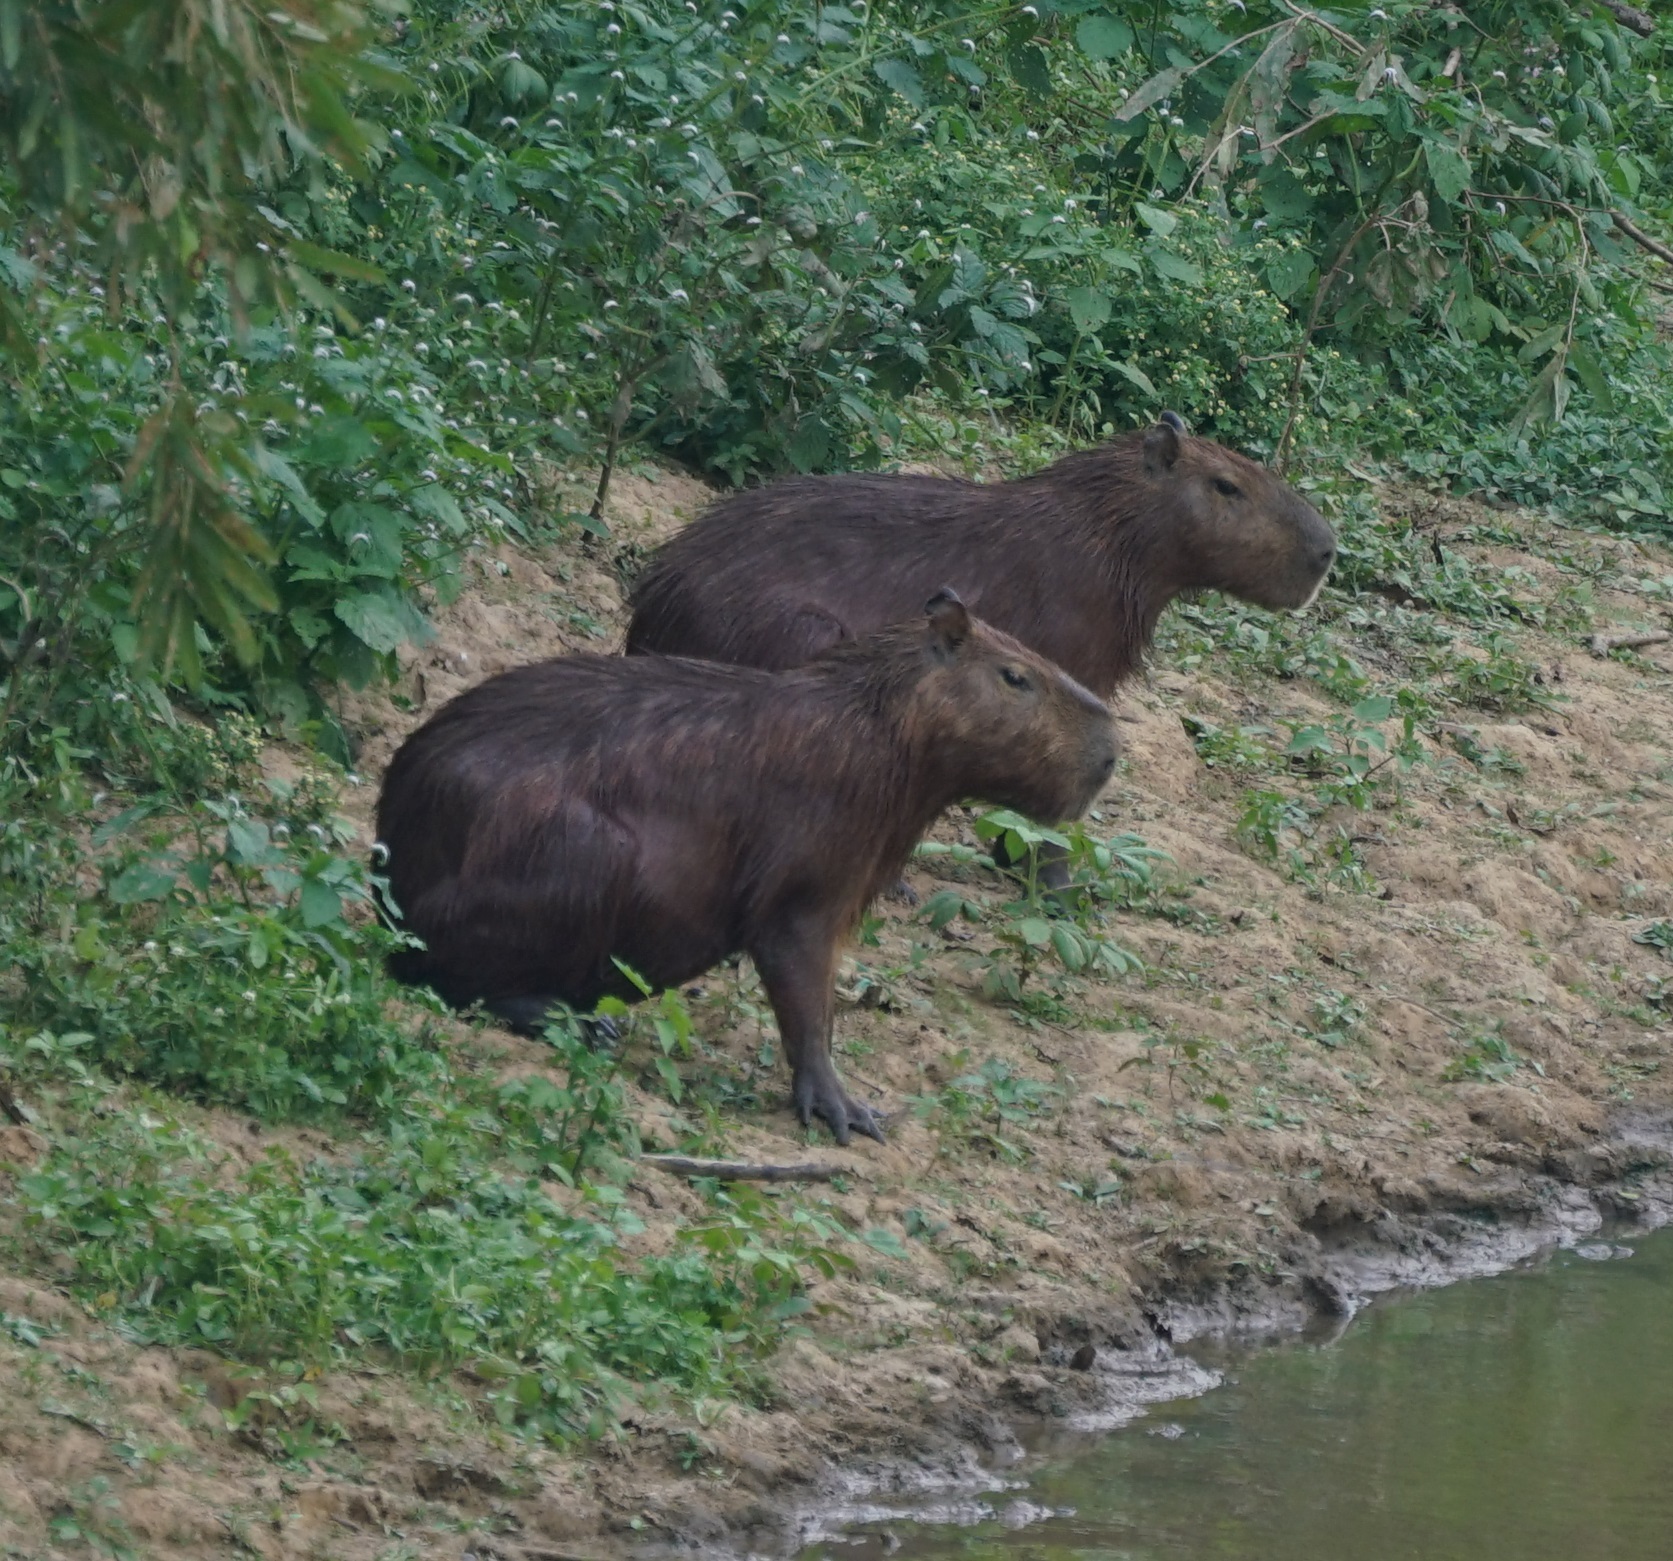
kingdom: Animalia
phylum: Chordata
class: Mammalia
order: Rodentia
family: Caviidae
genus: Hydrochoerus
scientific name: Hydrochoerus hydrochaeris
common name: Capybara
